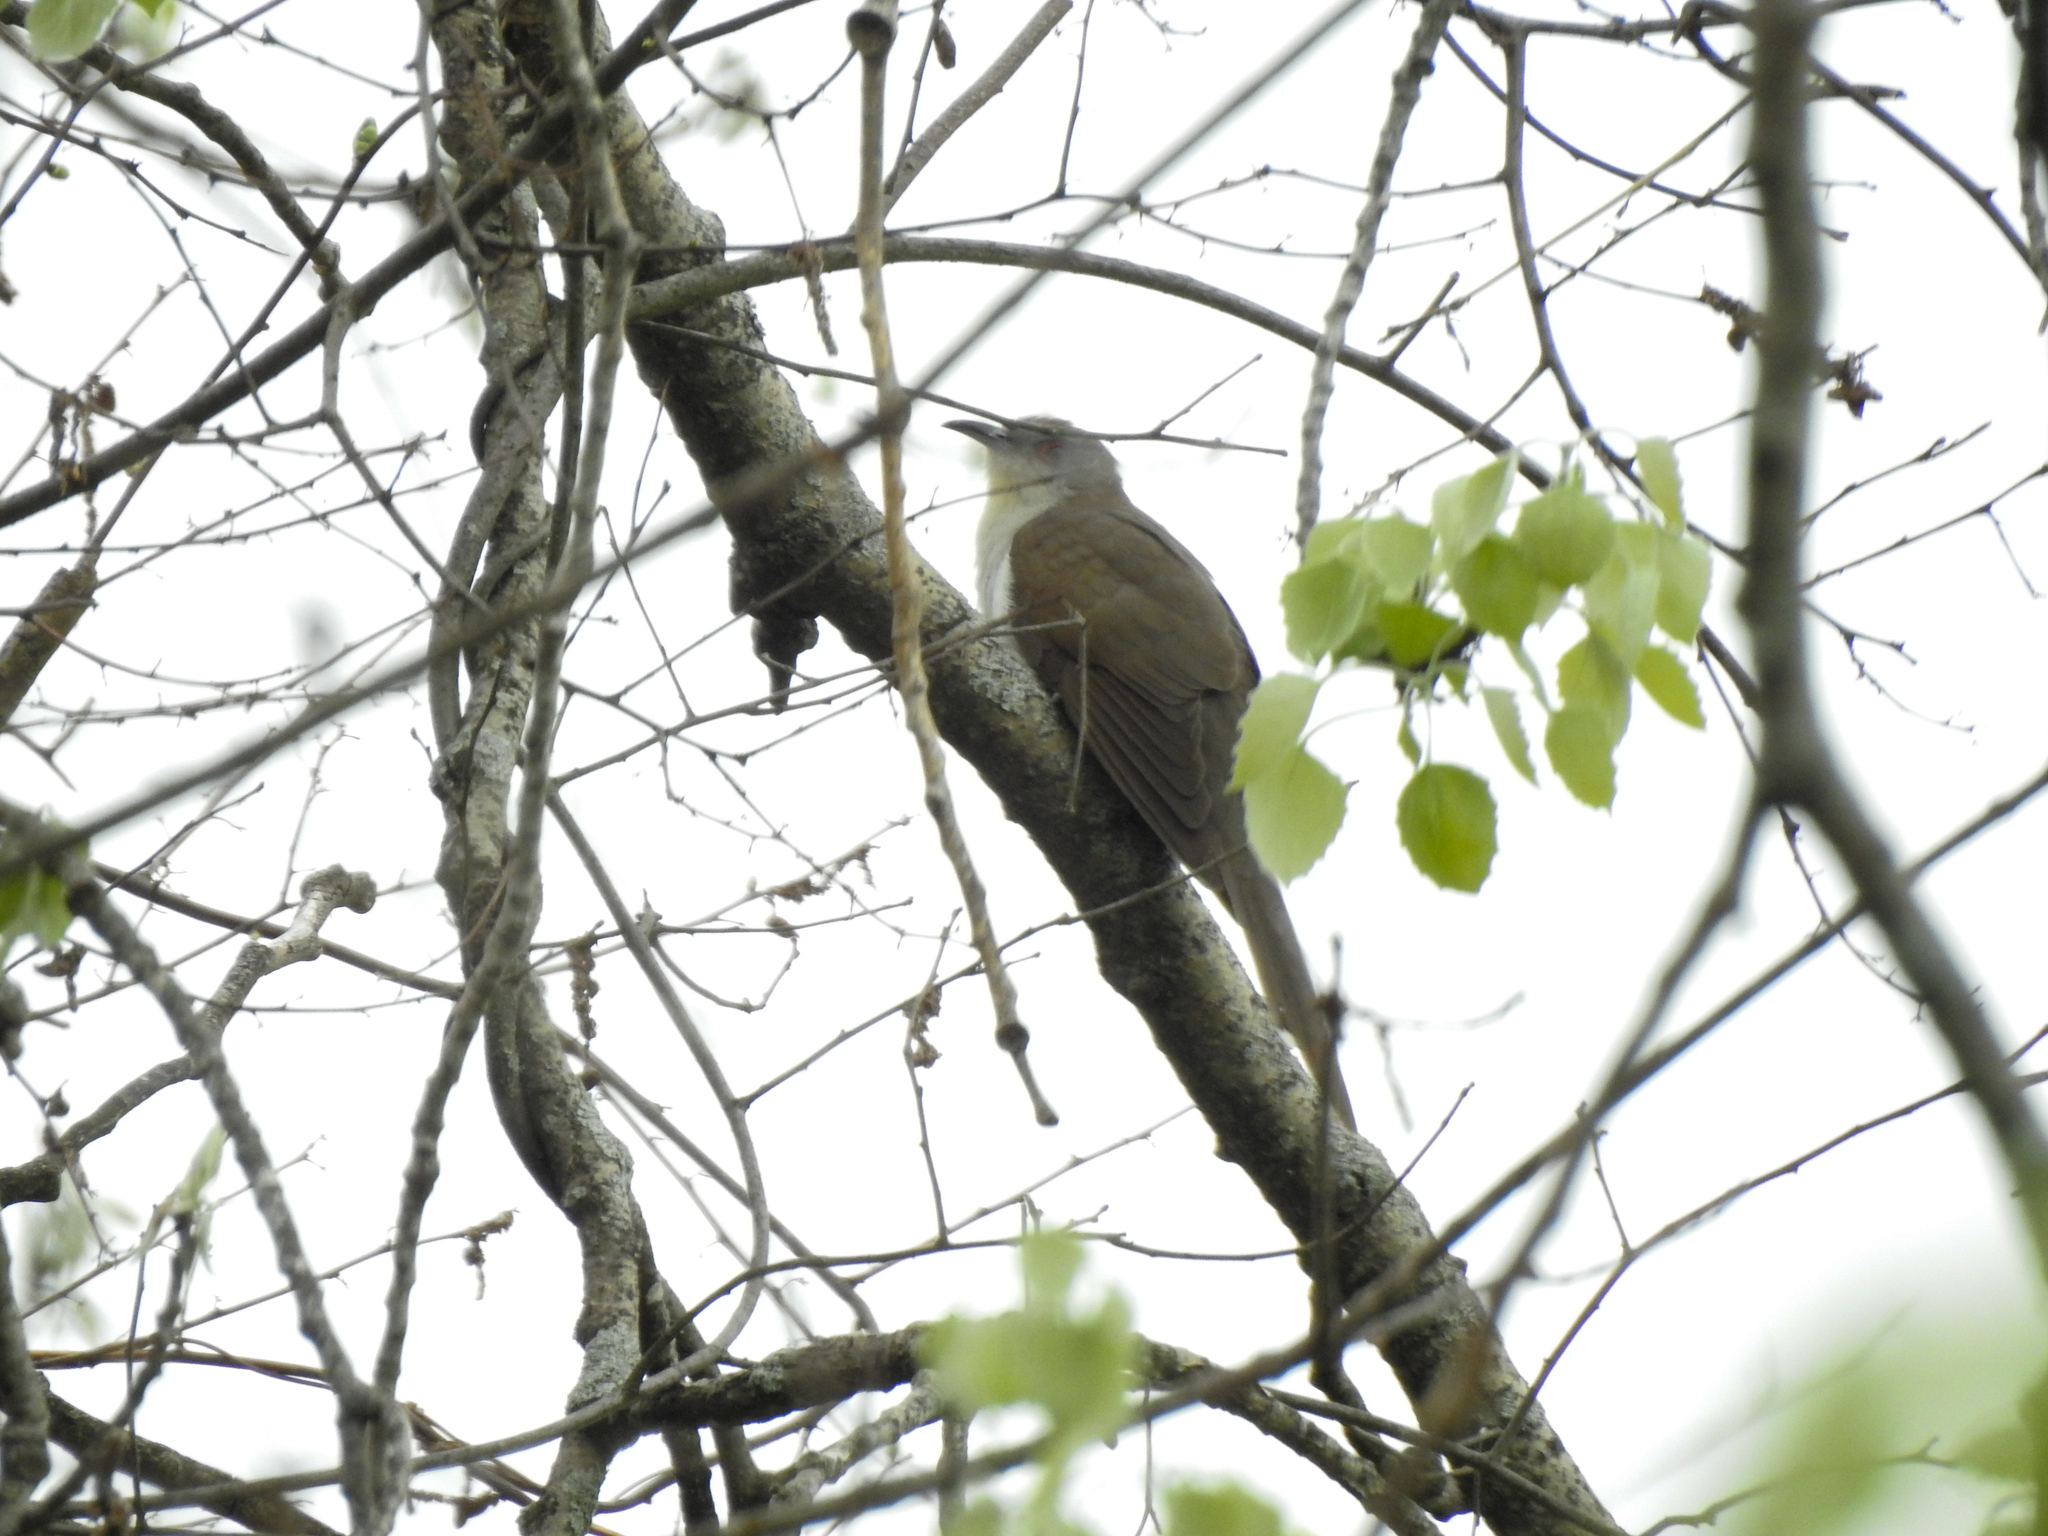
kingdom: Animalia
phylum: Chordata
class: Aves
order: Cuculiformes
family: Cuculidae
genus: Coccyzus
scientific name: Coccyzus erythropthalmus
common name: Black-billed cuckoo
